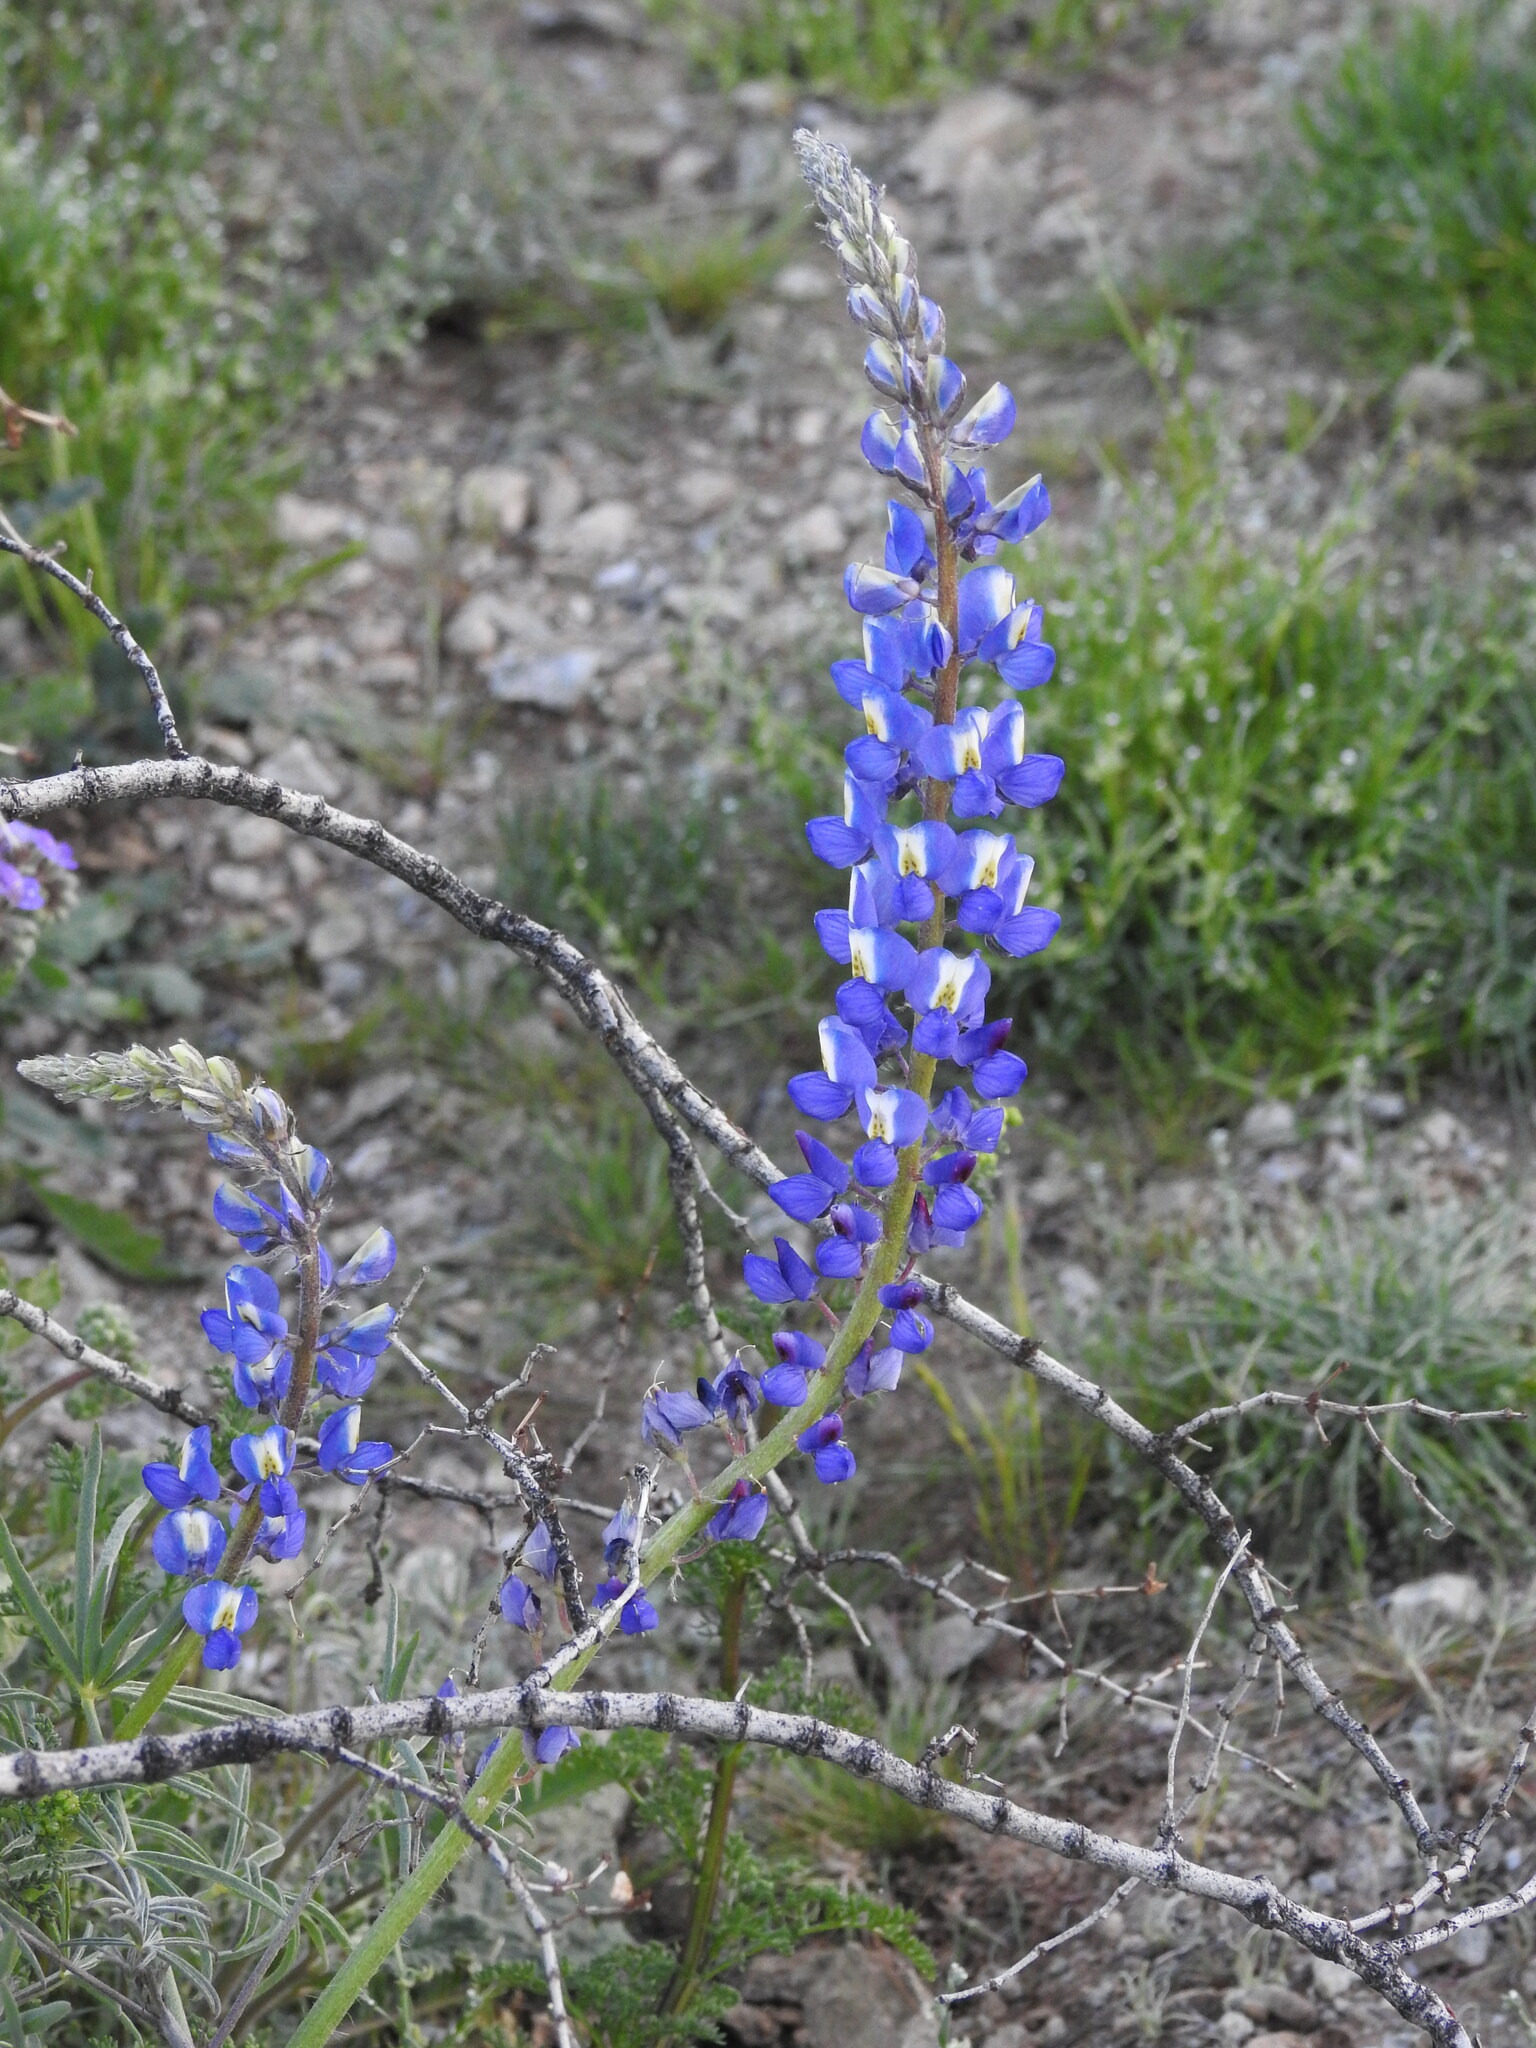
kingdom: Plantae
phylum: Tracheophyta
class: Magnoliopsida
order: Fabales
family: Fabaceae
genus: Lupinus
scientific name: Lupinus sparsiflorus
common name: Coulter's lupine
